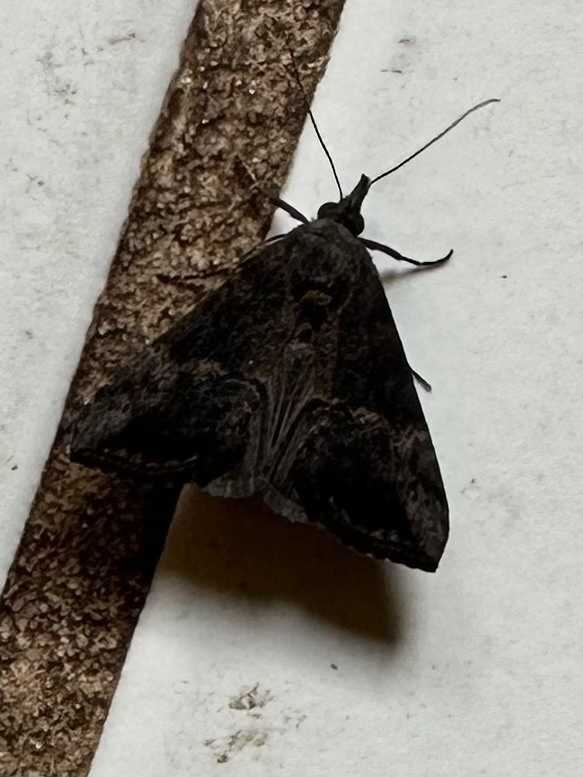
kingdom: Animalia
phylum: Arthropoda
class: Insecta
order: Lepidoptera
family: Erebidae
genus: Hypena
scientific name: Hypena scabra
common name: Green cloverworm
